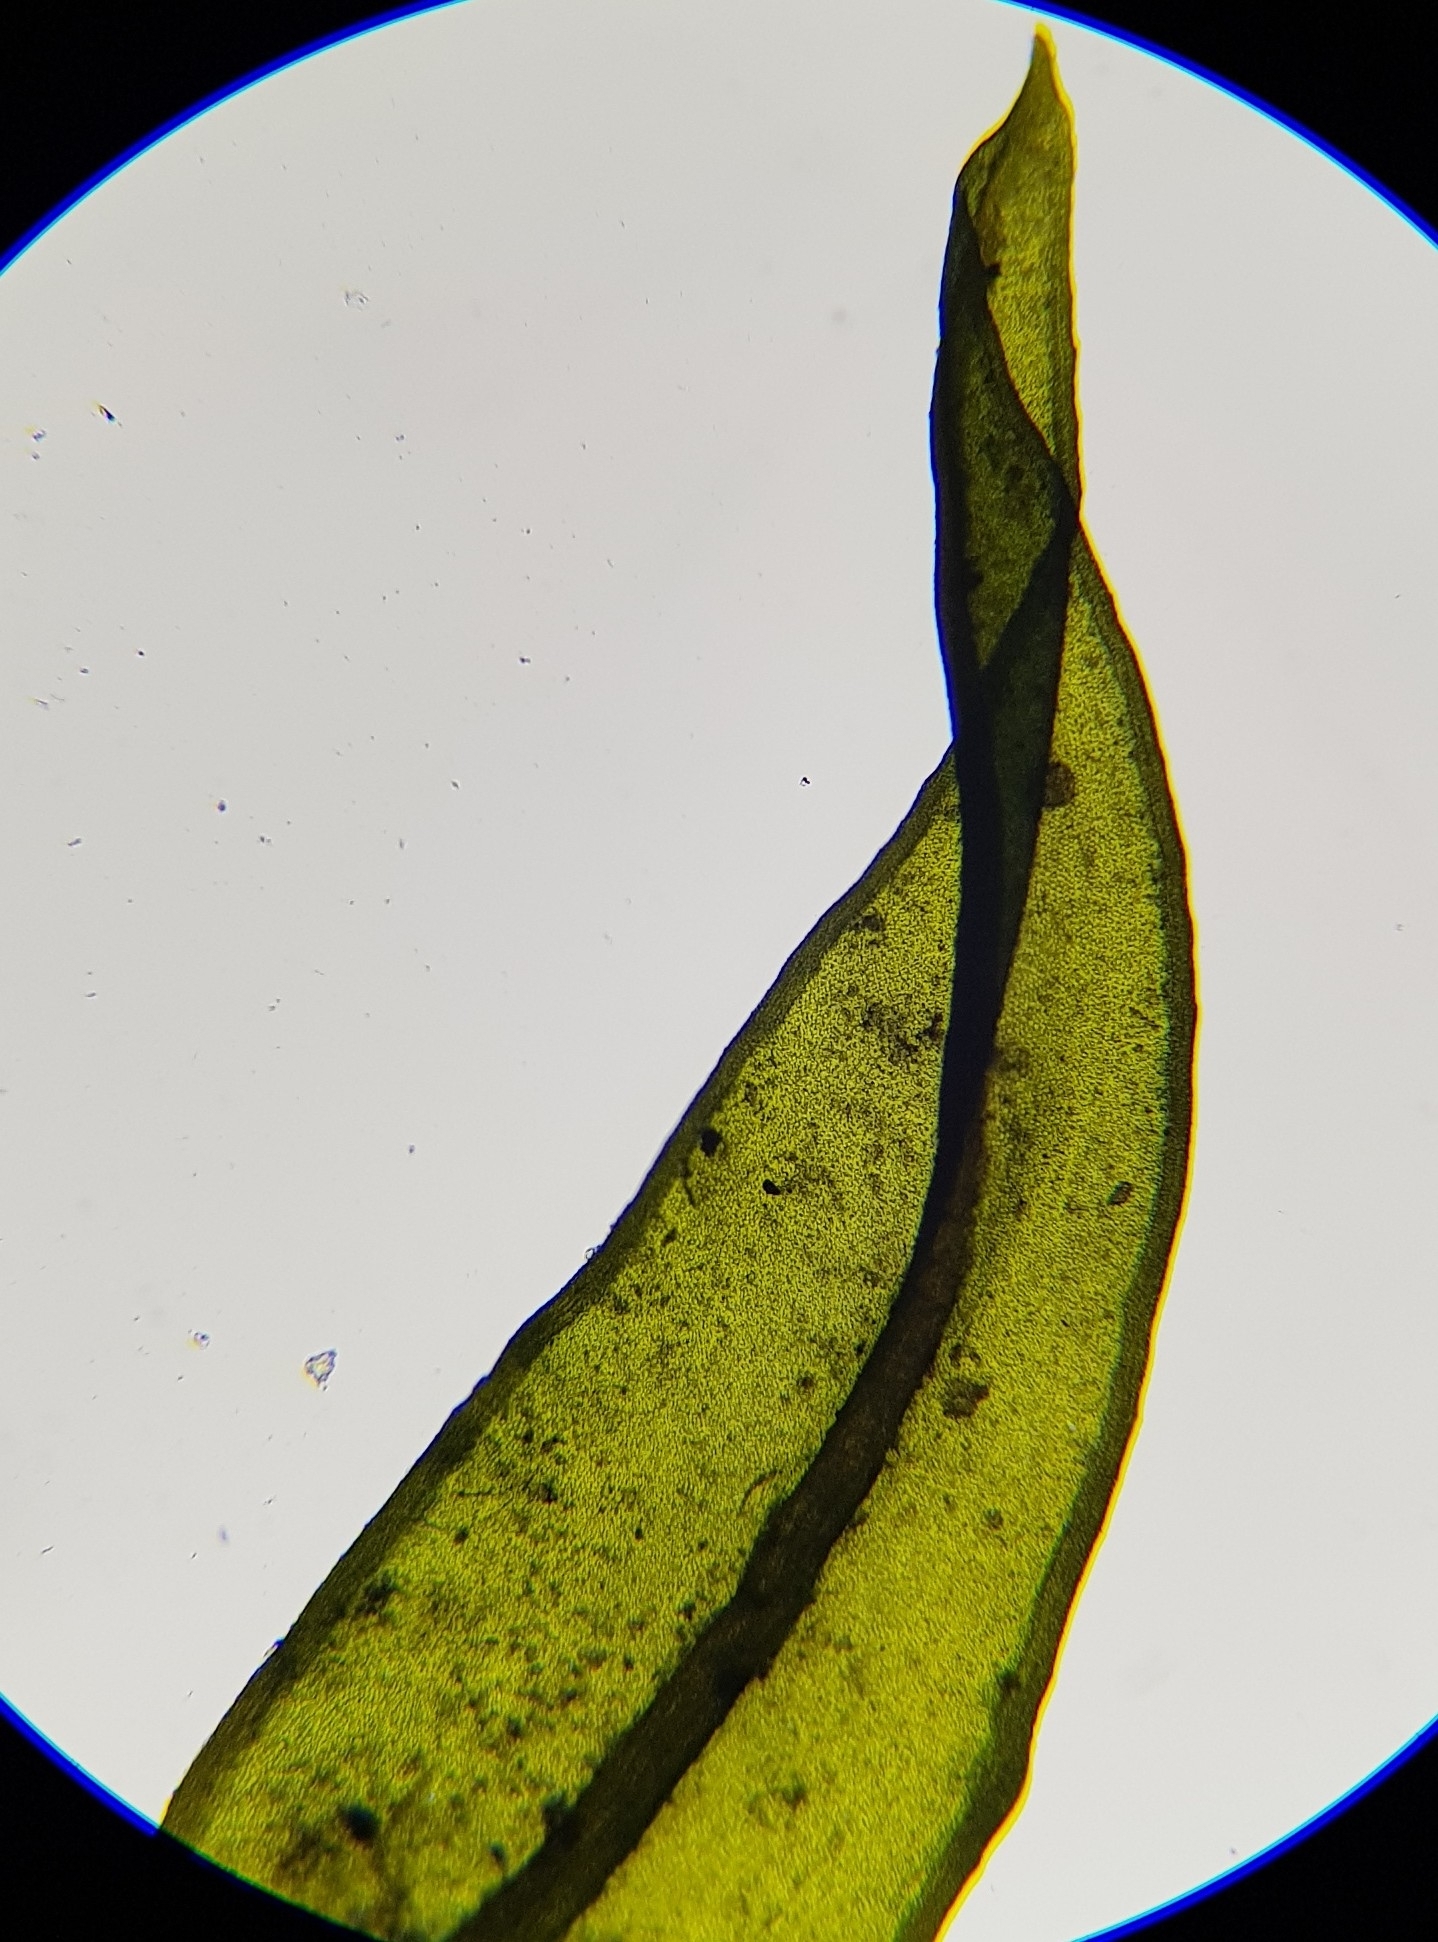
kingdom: Plantae
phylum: Bryophyta
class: Bryopsida
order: Pottiales
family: Pottiaceae
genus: Cinclidotus
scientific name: Cinclidotus fontinaloides
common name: Smaller lattice-moss
